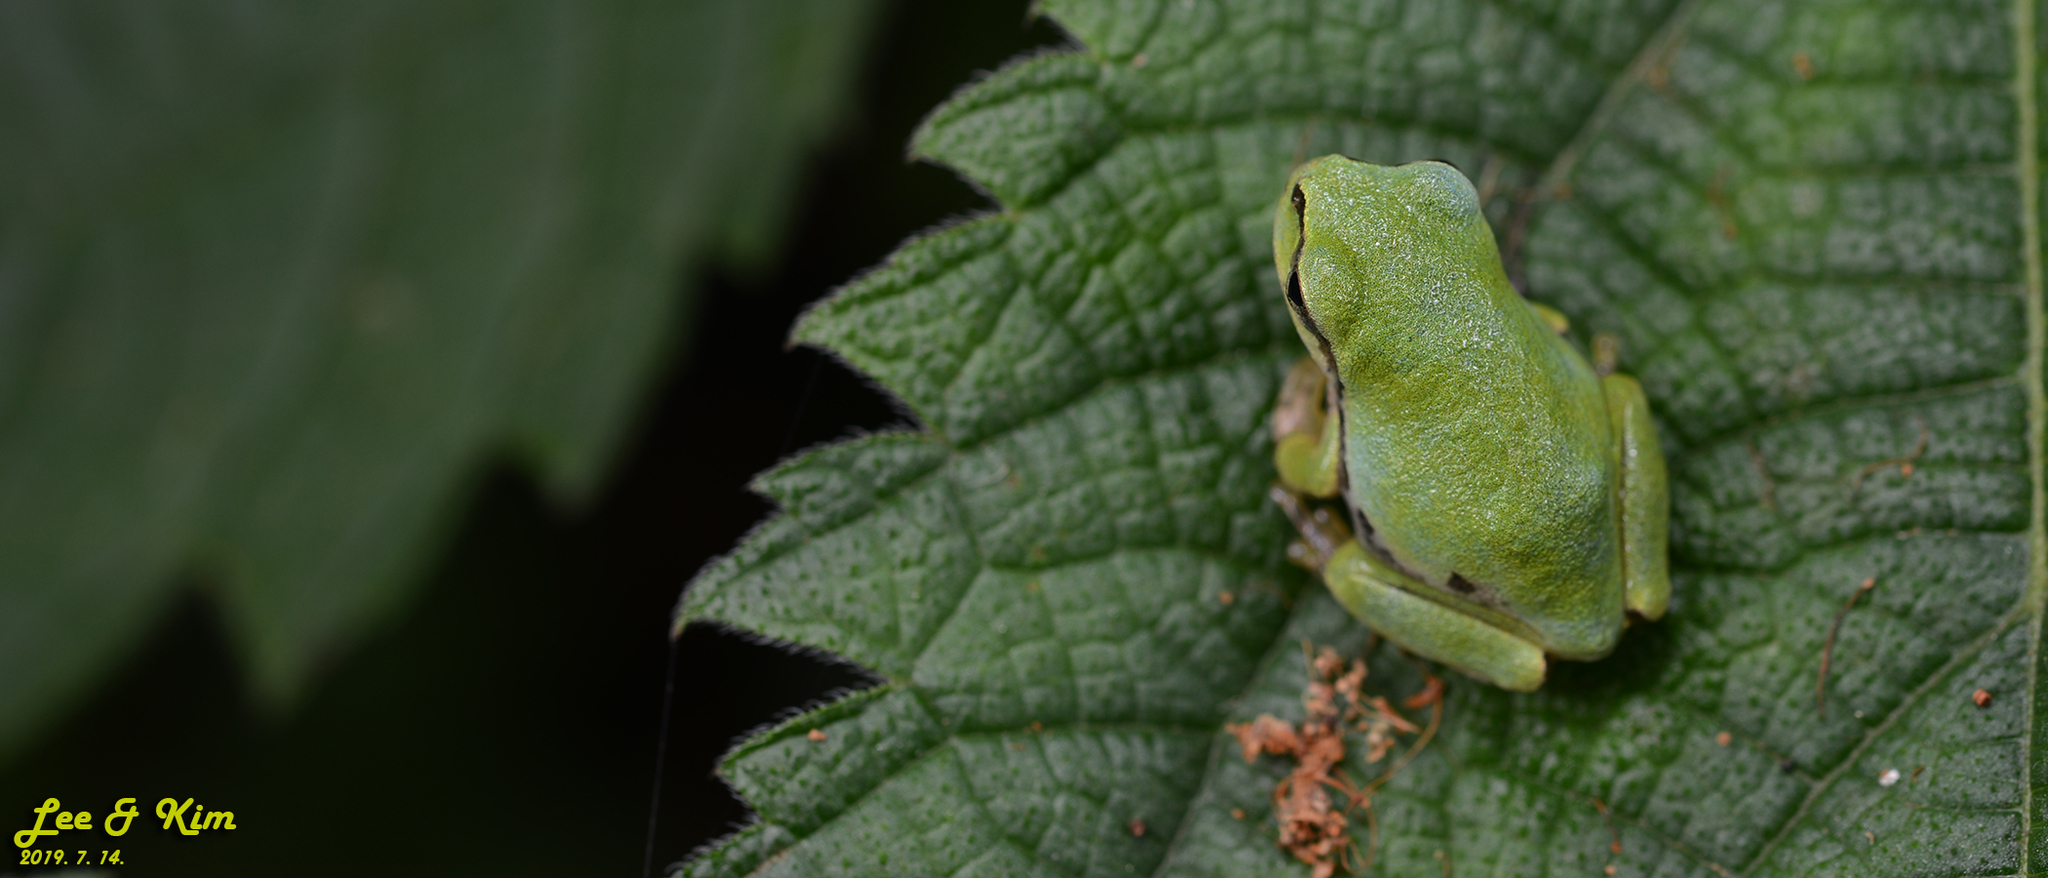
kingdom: Animalia
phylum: Chordata
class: Amphibia
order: Anura
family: Hylidae
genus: Dryophytes
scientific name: Dryophytes japonicus
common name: Japanese treefrog
